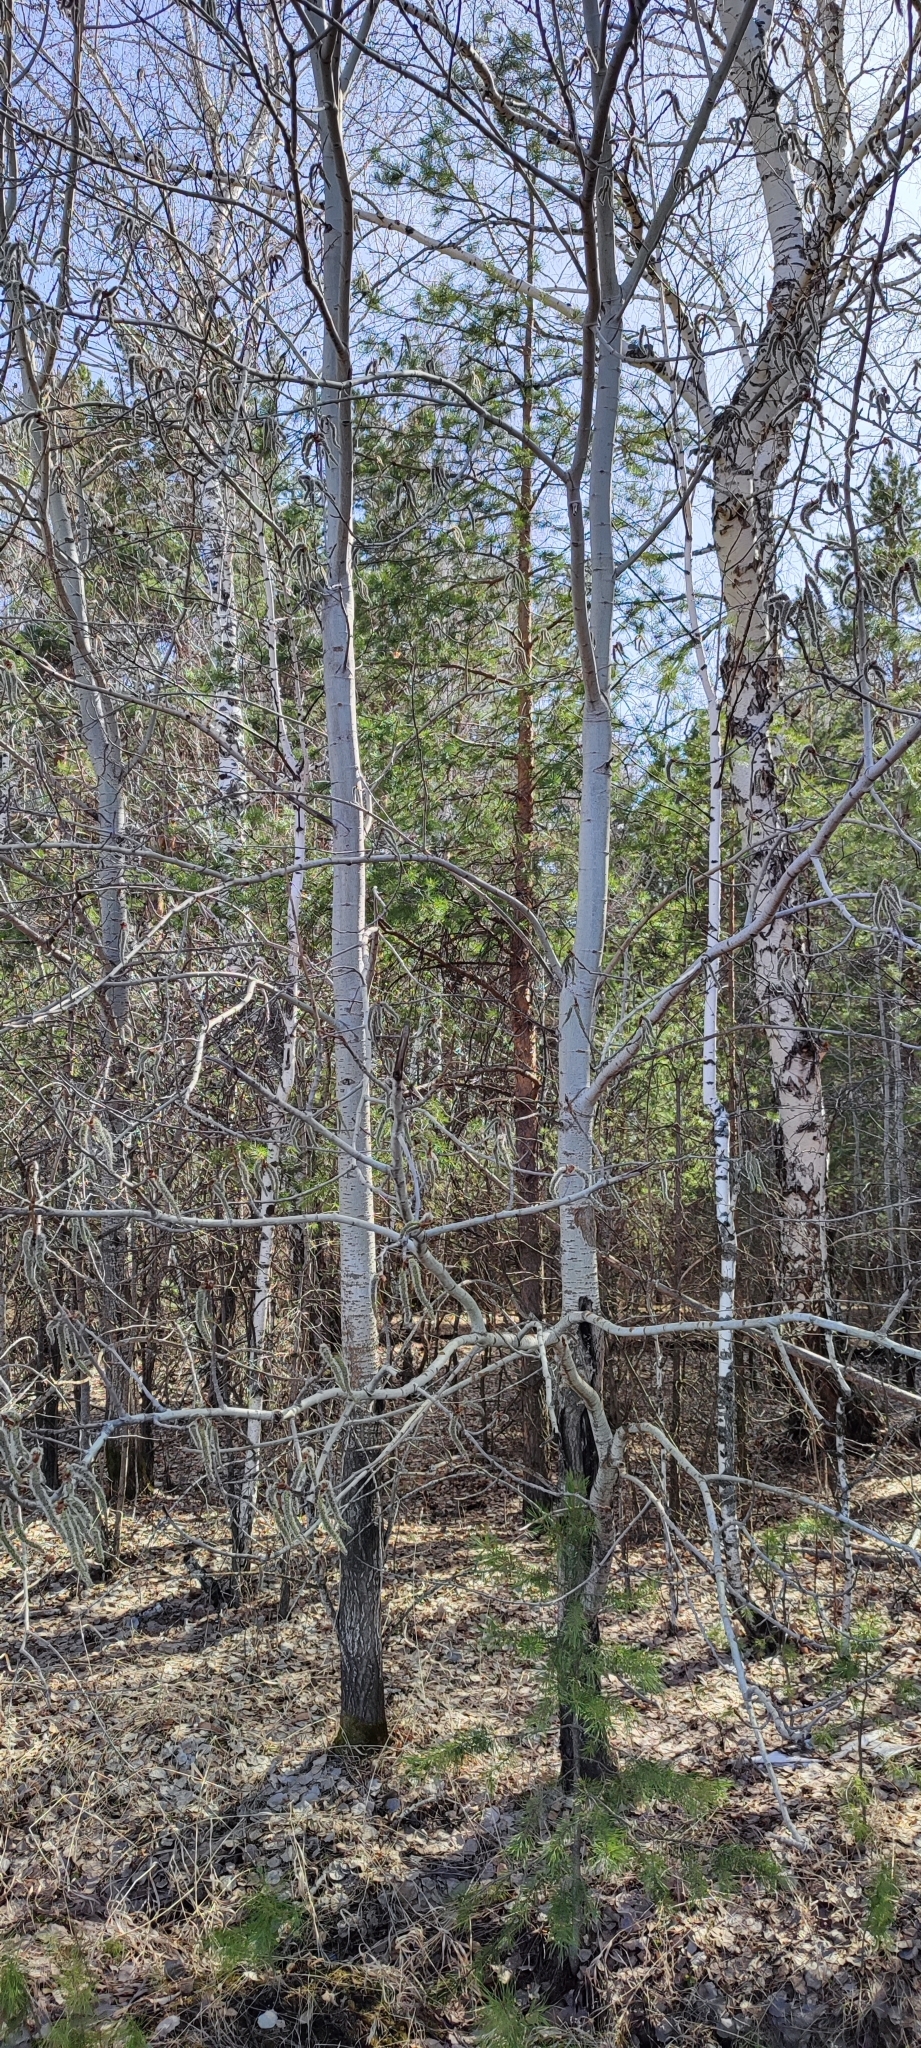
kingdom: Plantae
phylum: Tracheophyta
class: Magnoliopsida
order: Malpighiales
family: Salicaceae
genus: Populus
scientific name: Populus tremula
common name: European aspen
